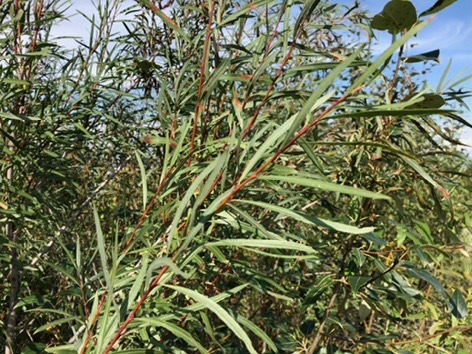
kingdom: Plantae
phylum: Tracheophyta
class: Magnoliopsida
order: Malpighiales
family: Salicaceae
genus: Salix
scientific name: Salix interior
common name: Sandbar willow
